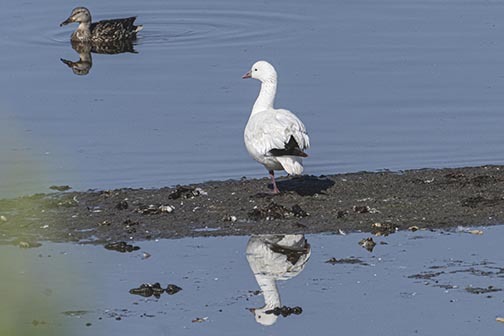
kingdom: Animalia
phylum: Chordata
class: Aves
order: Anseriformes
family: Anatidae
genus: Anser
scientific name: Anser rossii
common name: Ross's goose
